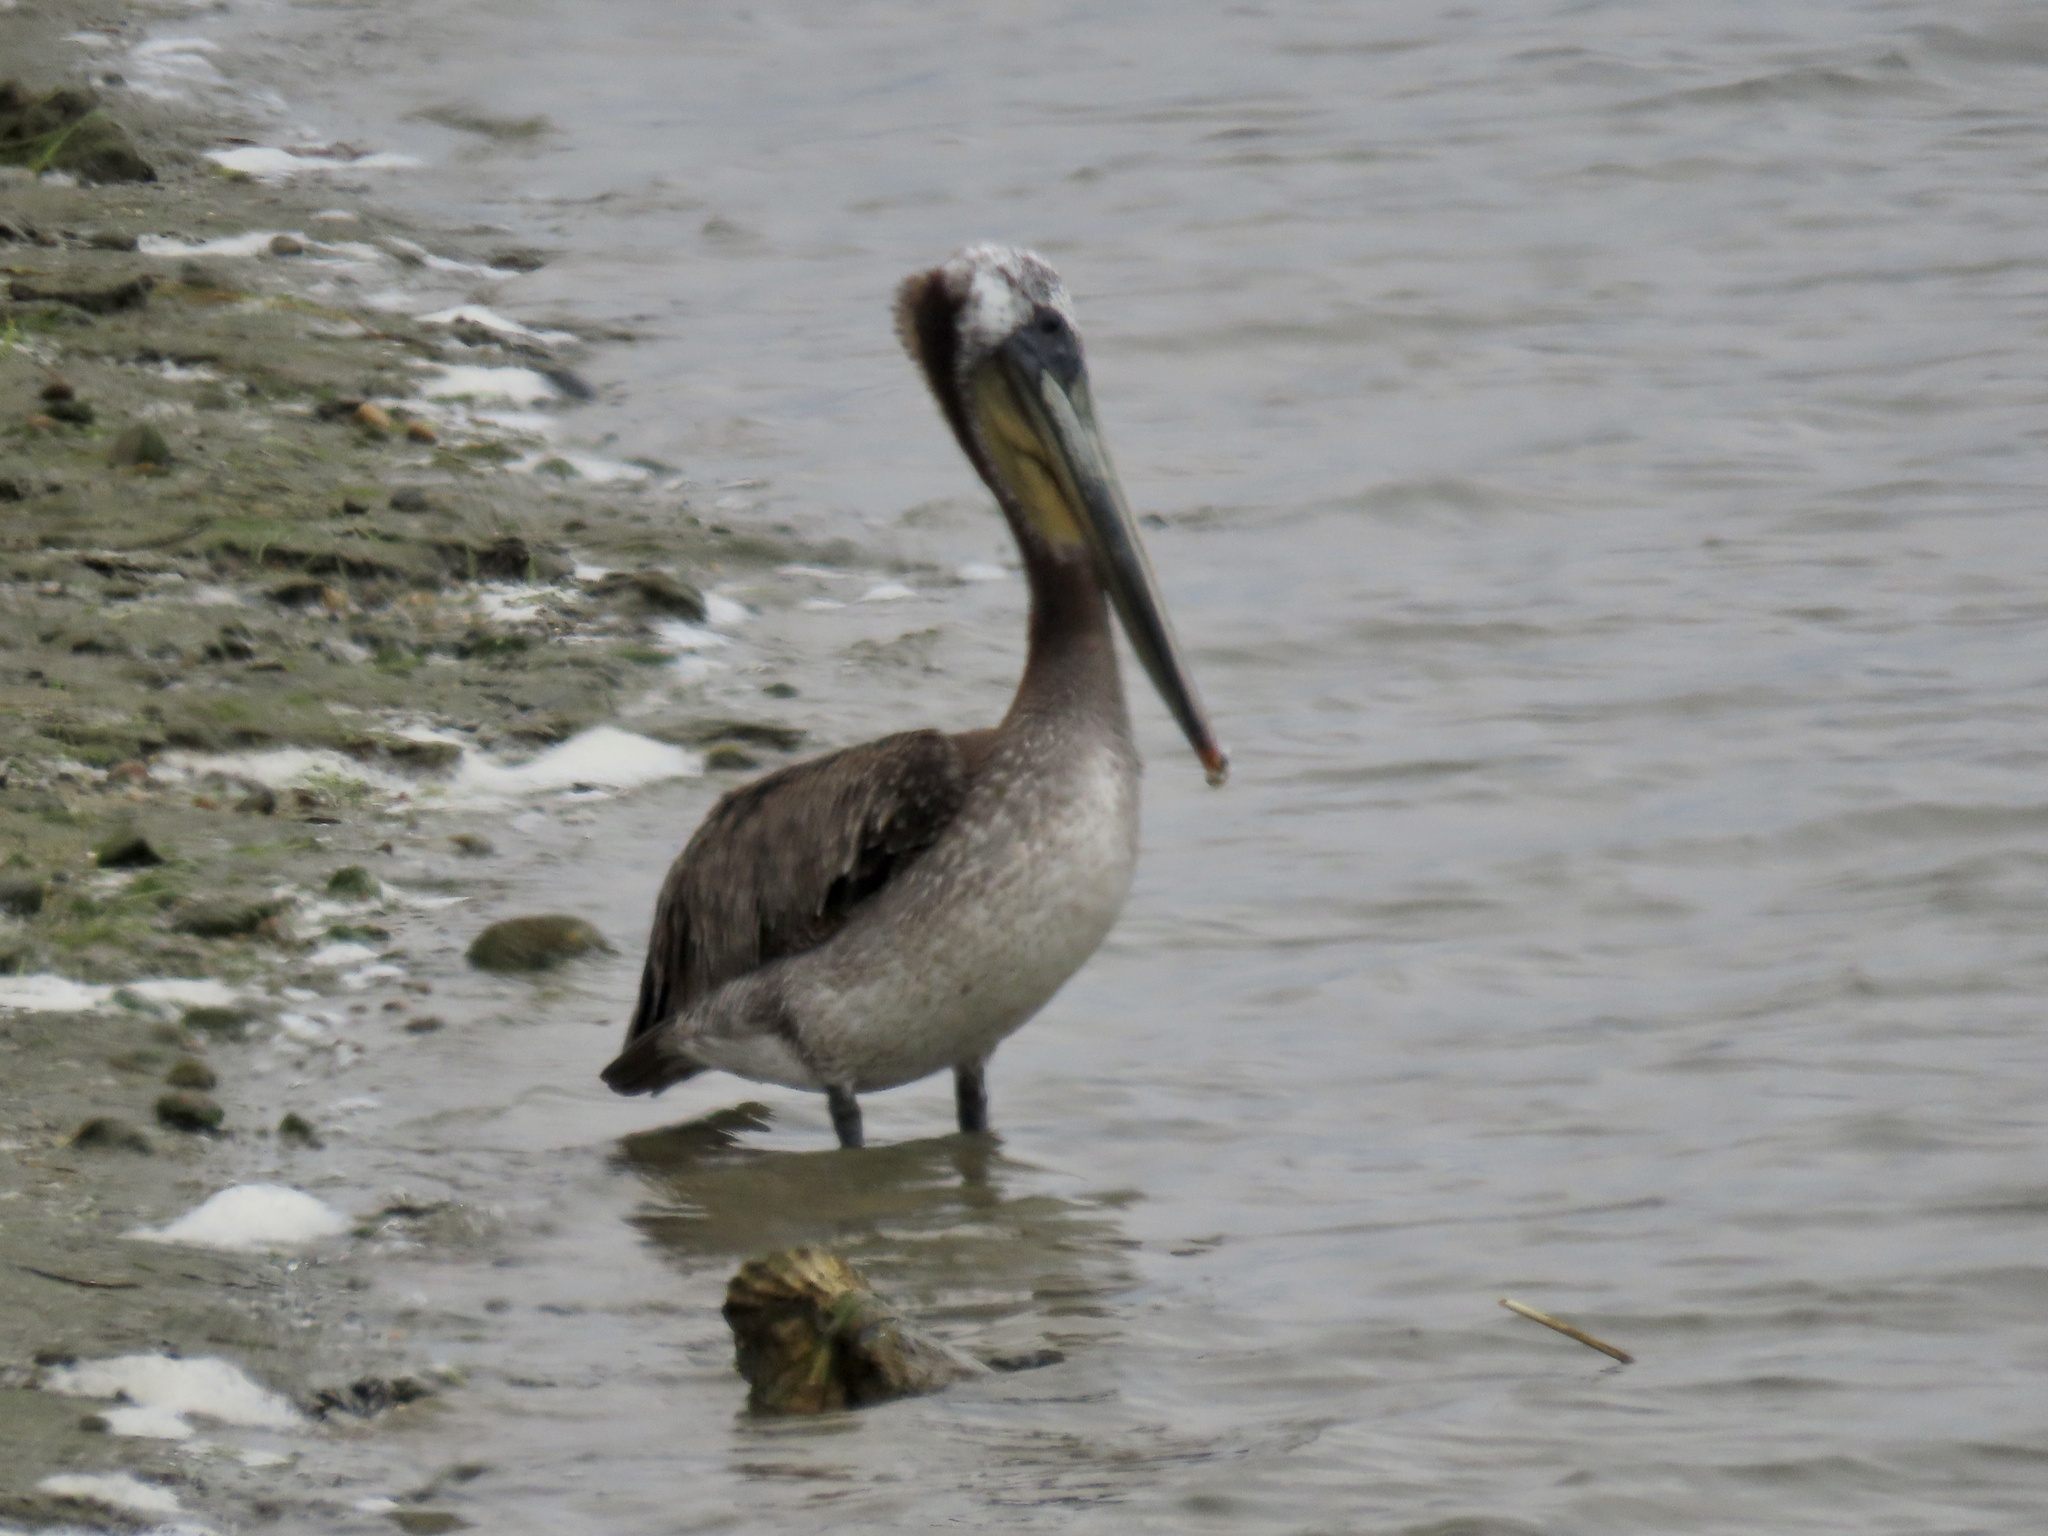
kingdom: Animalia
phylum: Chordata
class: Aves
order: Pelecaniformes
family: Pelecanidae
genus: Pelecanus
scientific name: Pelecanus occidentalis
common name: Brown pelican
